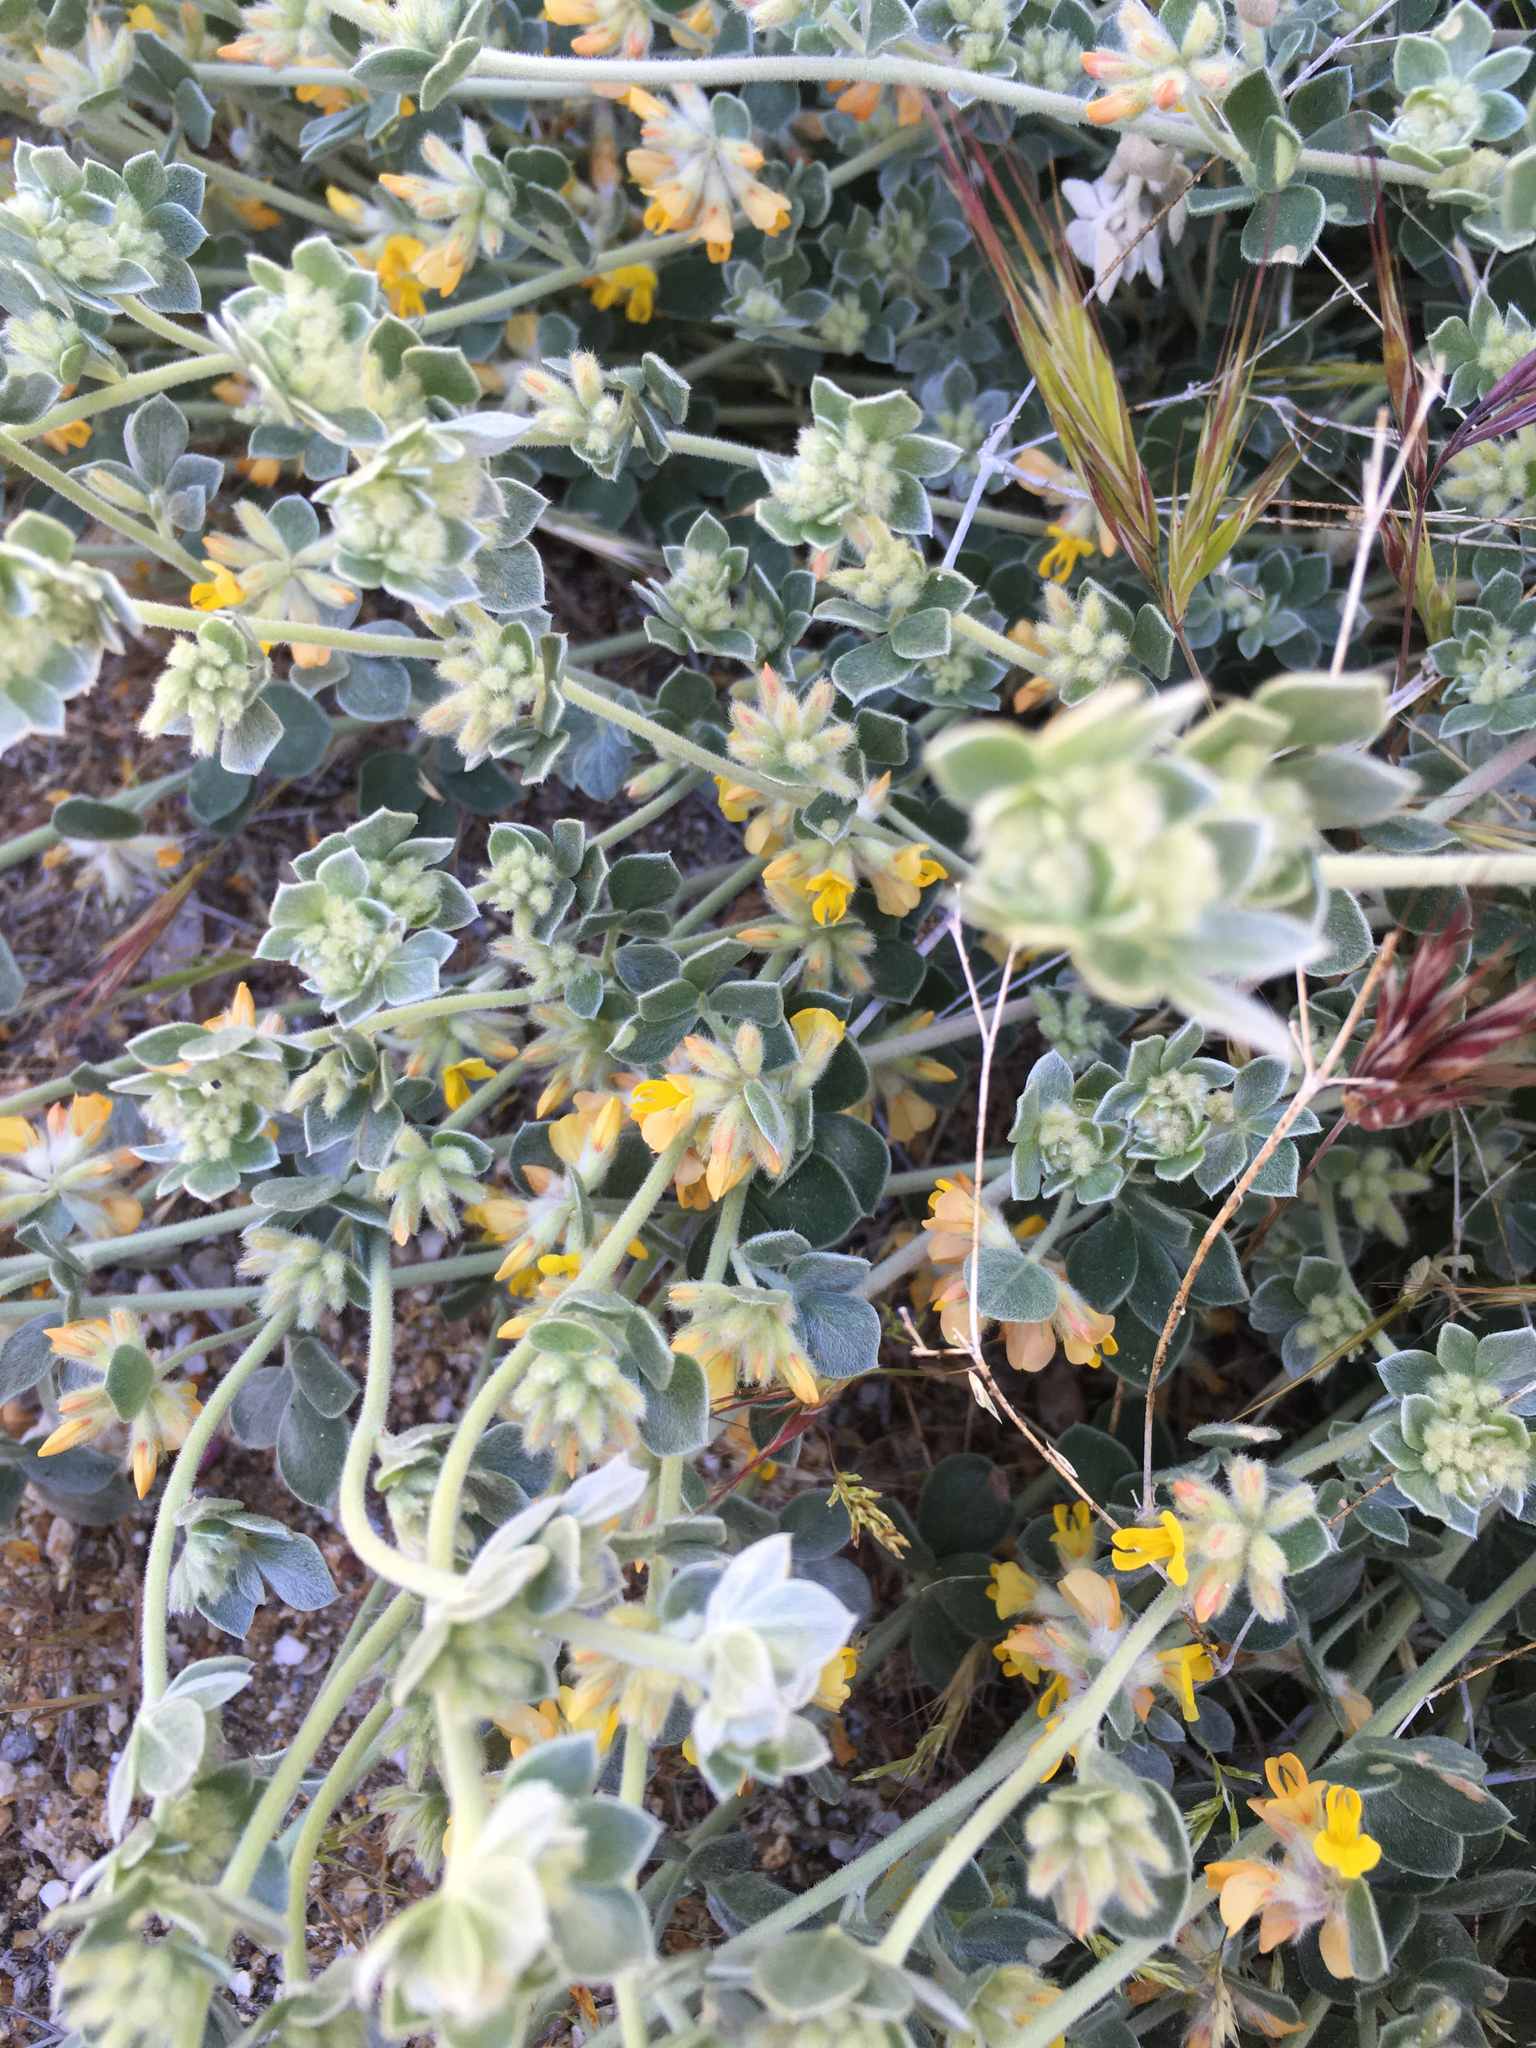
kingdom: Plantae
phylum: Tracheophyta
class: Magnoliopsida
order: Fabales
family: Fabaceae
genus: Acmispon
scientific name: Acmispon argophyllus
